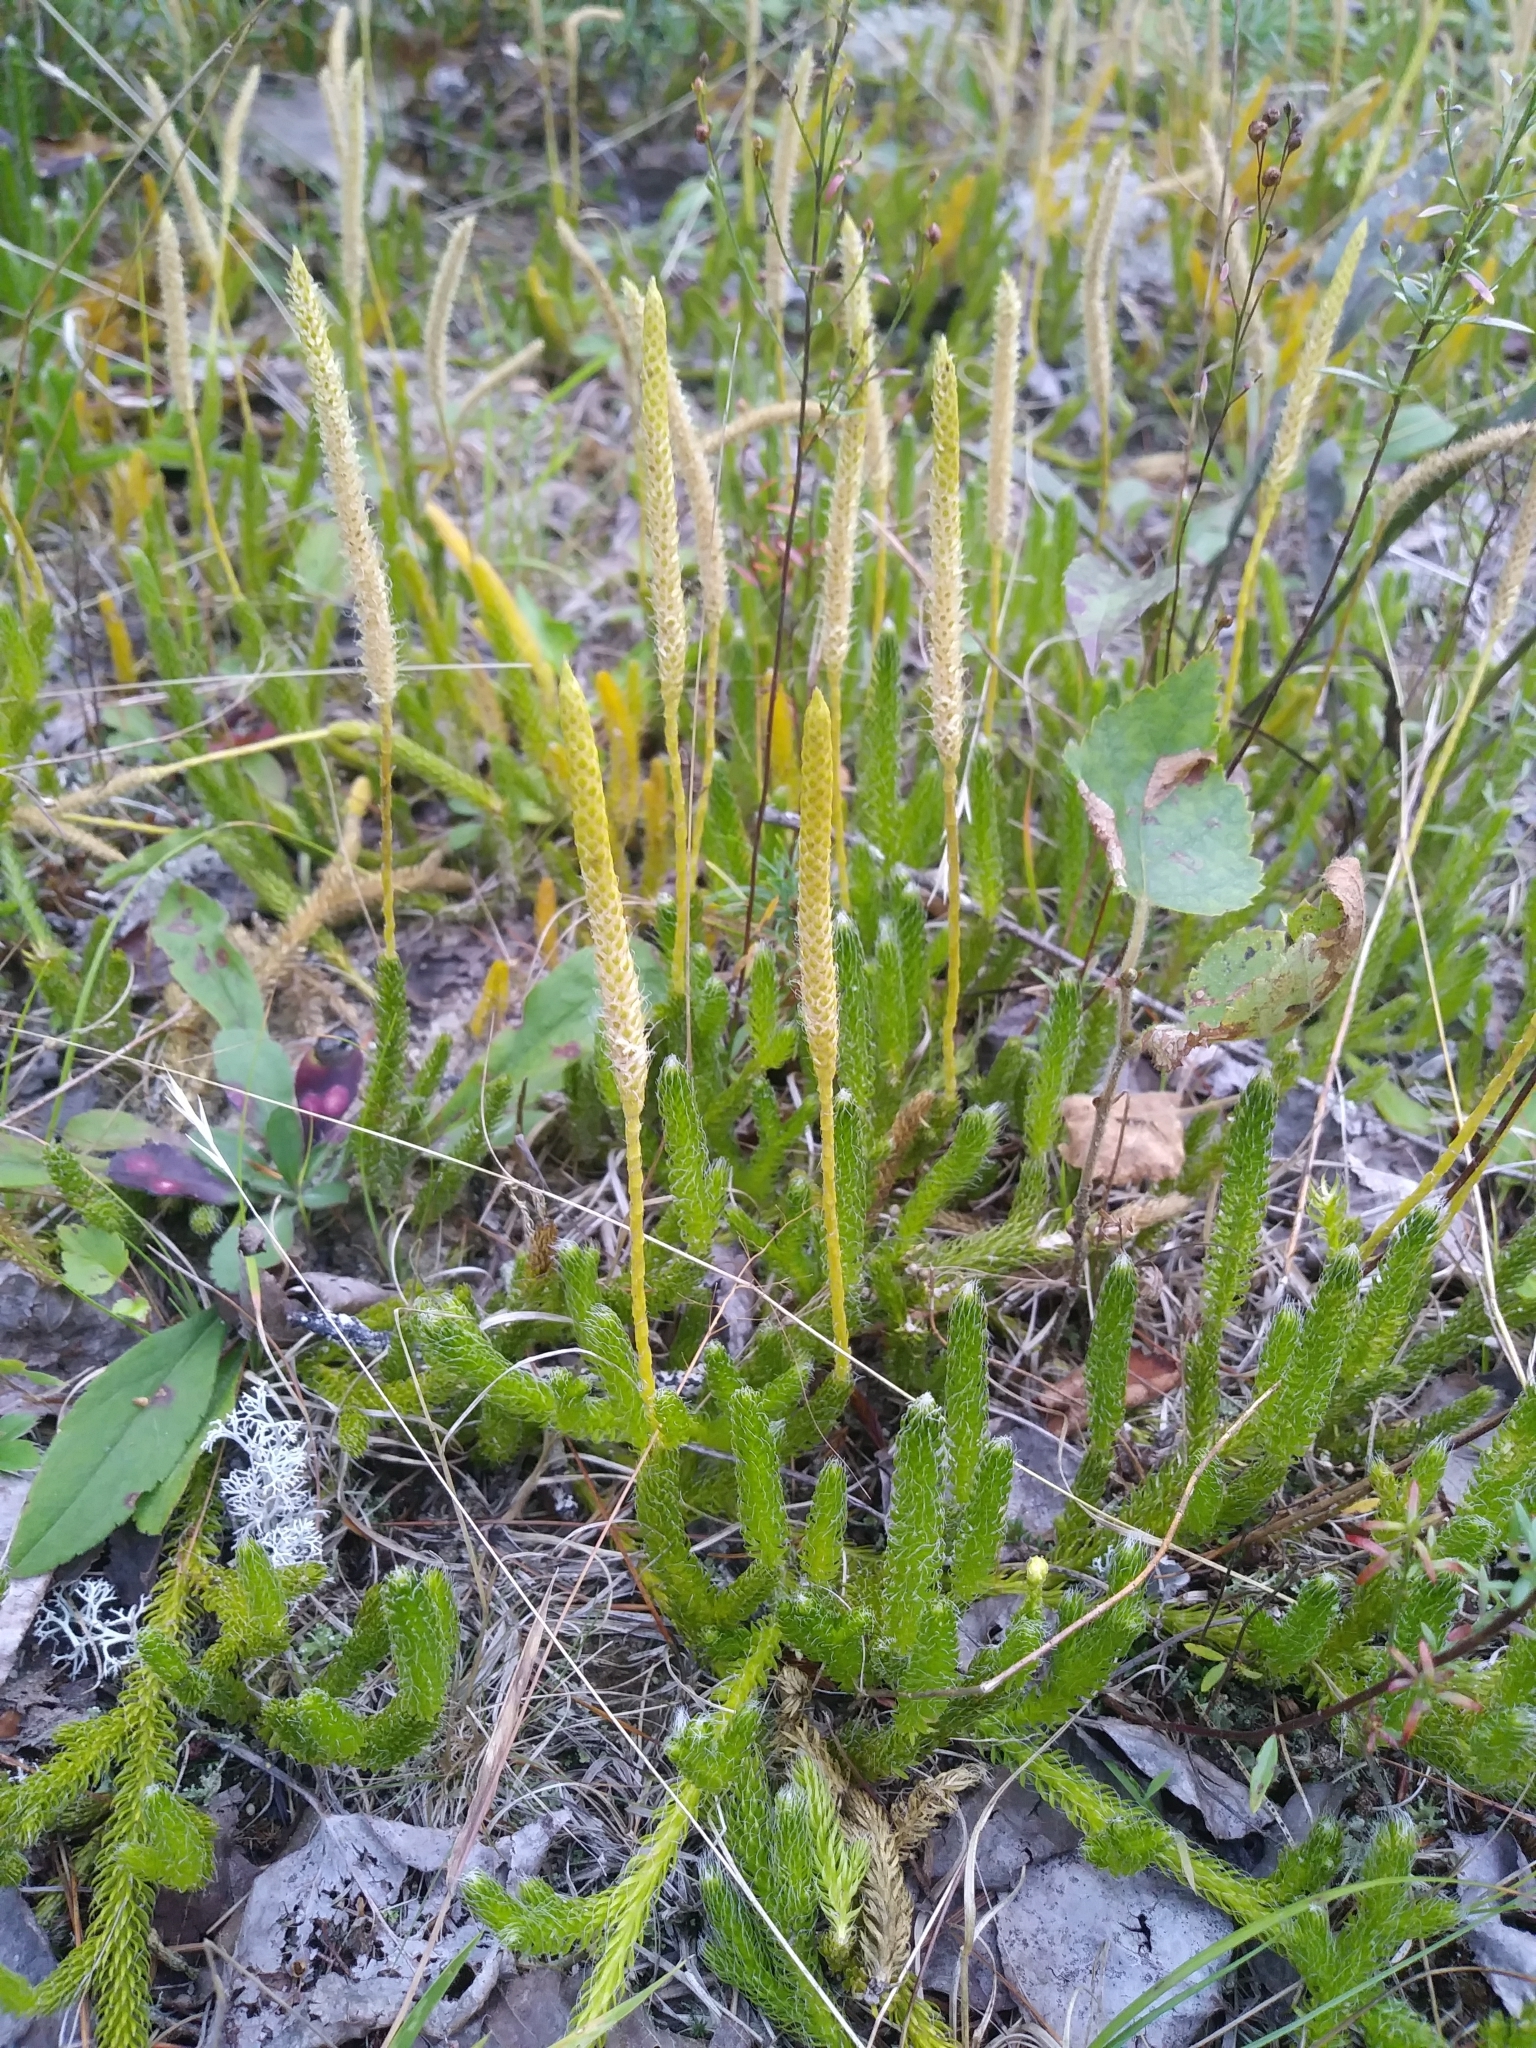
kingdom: Plantae
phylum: Tracheophyta
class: Lycopodiopsida
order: Lycopodiales
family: Lycopodiaceae
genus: Lycopodium
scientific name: Lycopodium lagopus
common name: One-cone clubmoss
